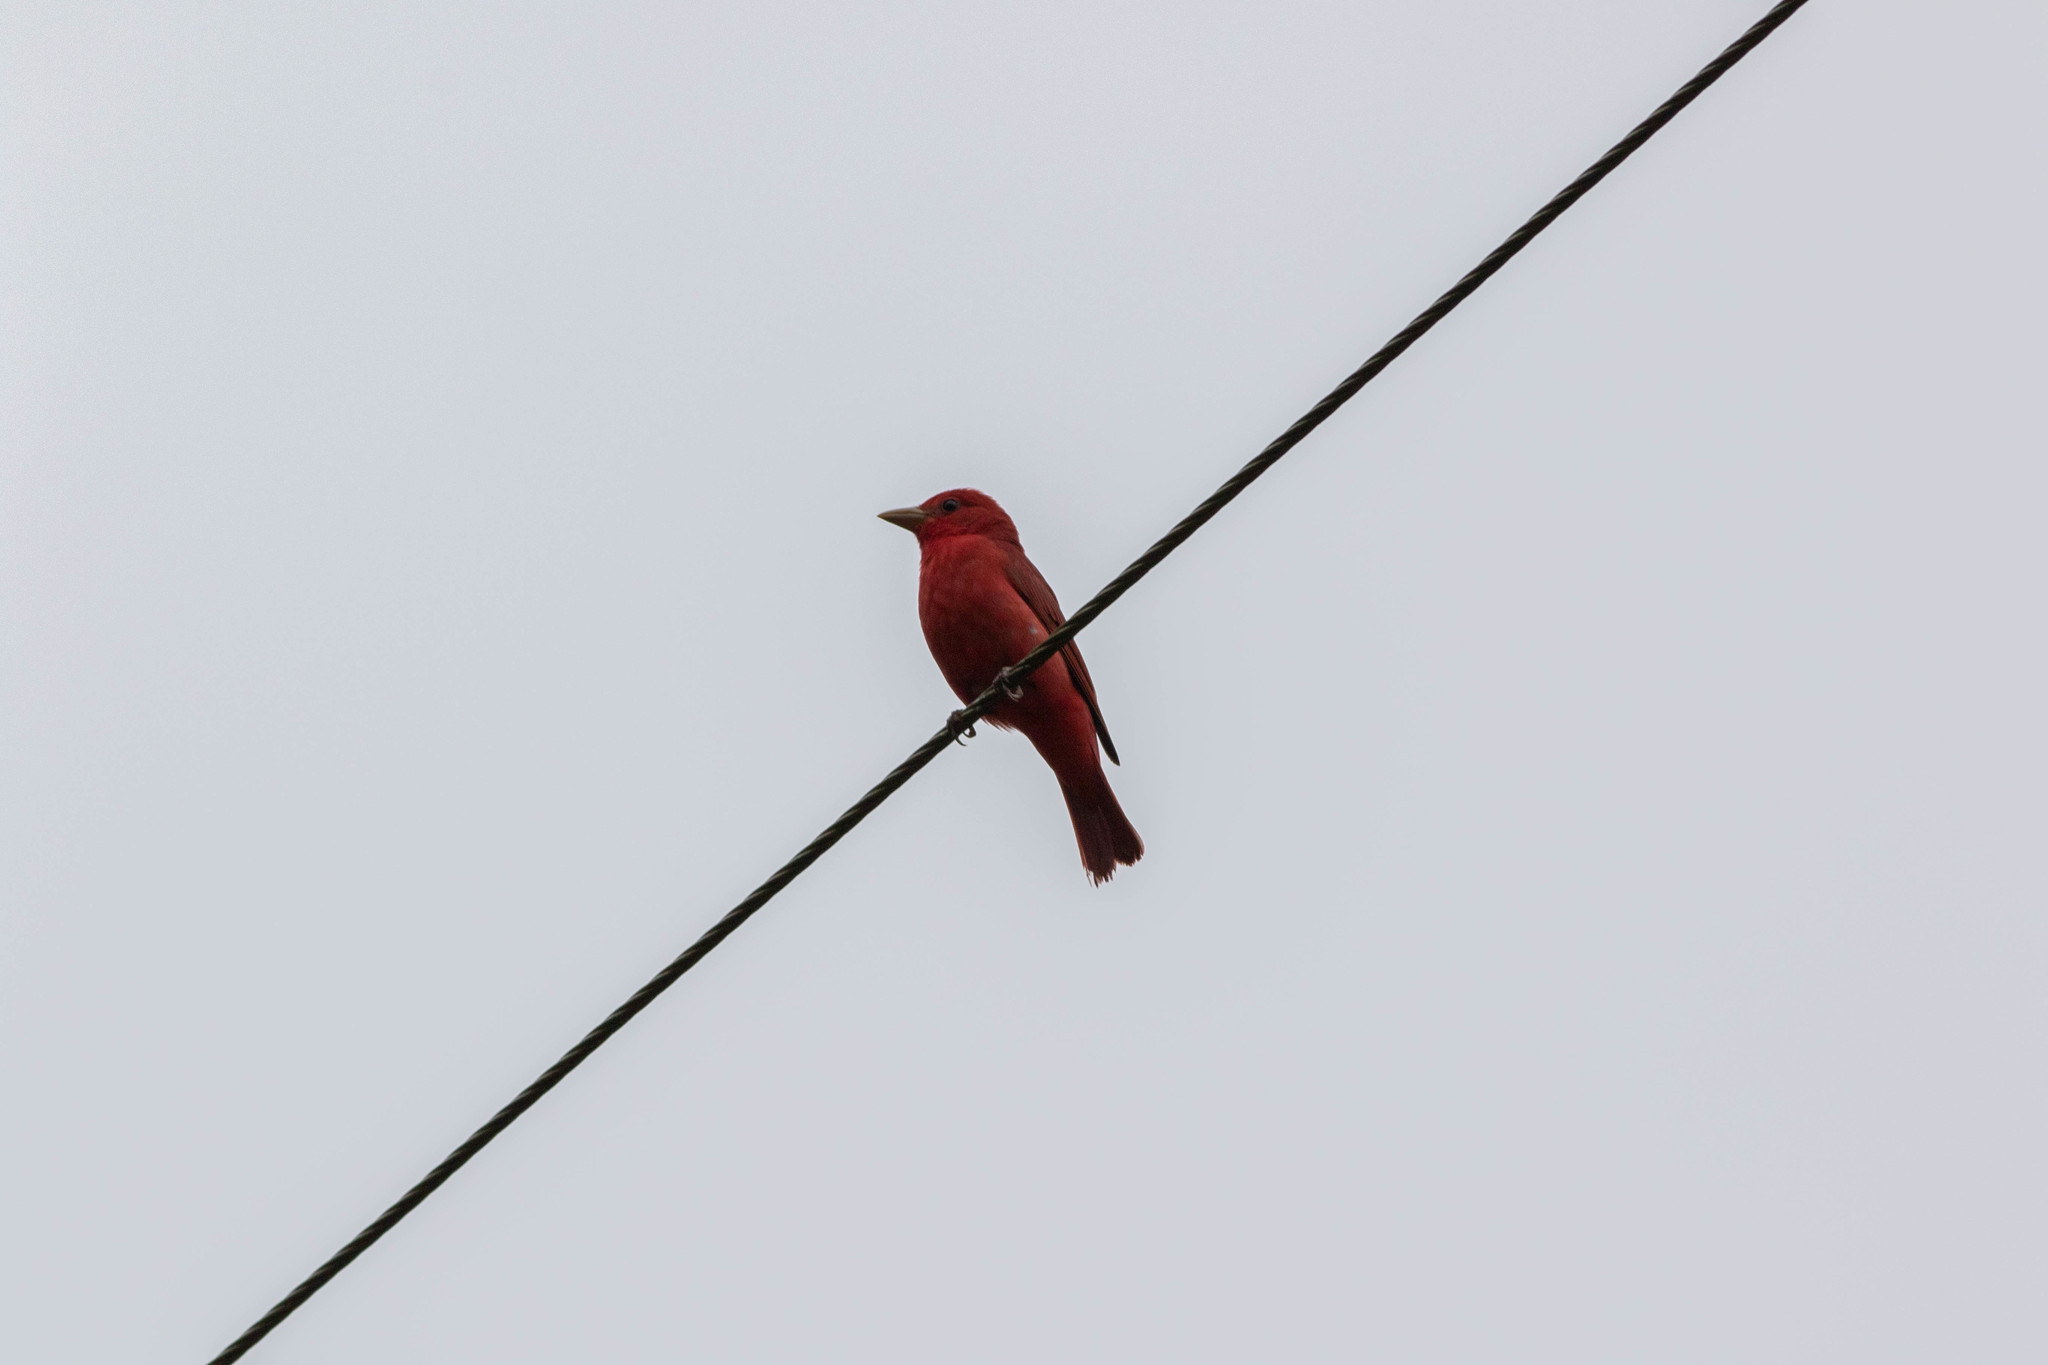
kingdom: Animalia
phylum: Chordata
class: Aves
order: Passeriformes
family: Cardinalidae
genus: Piranga
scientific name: Piranga rubra
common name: Summer tanager
